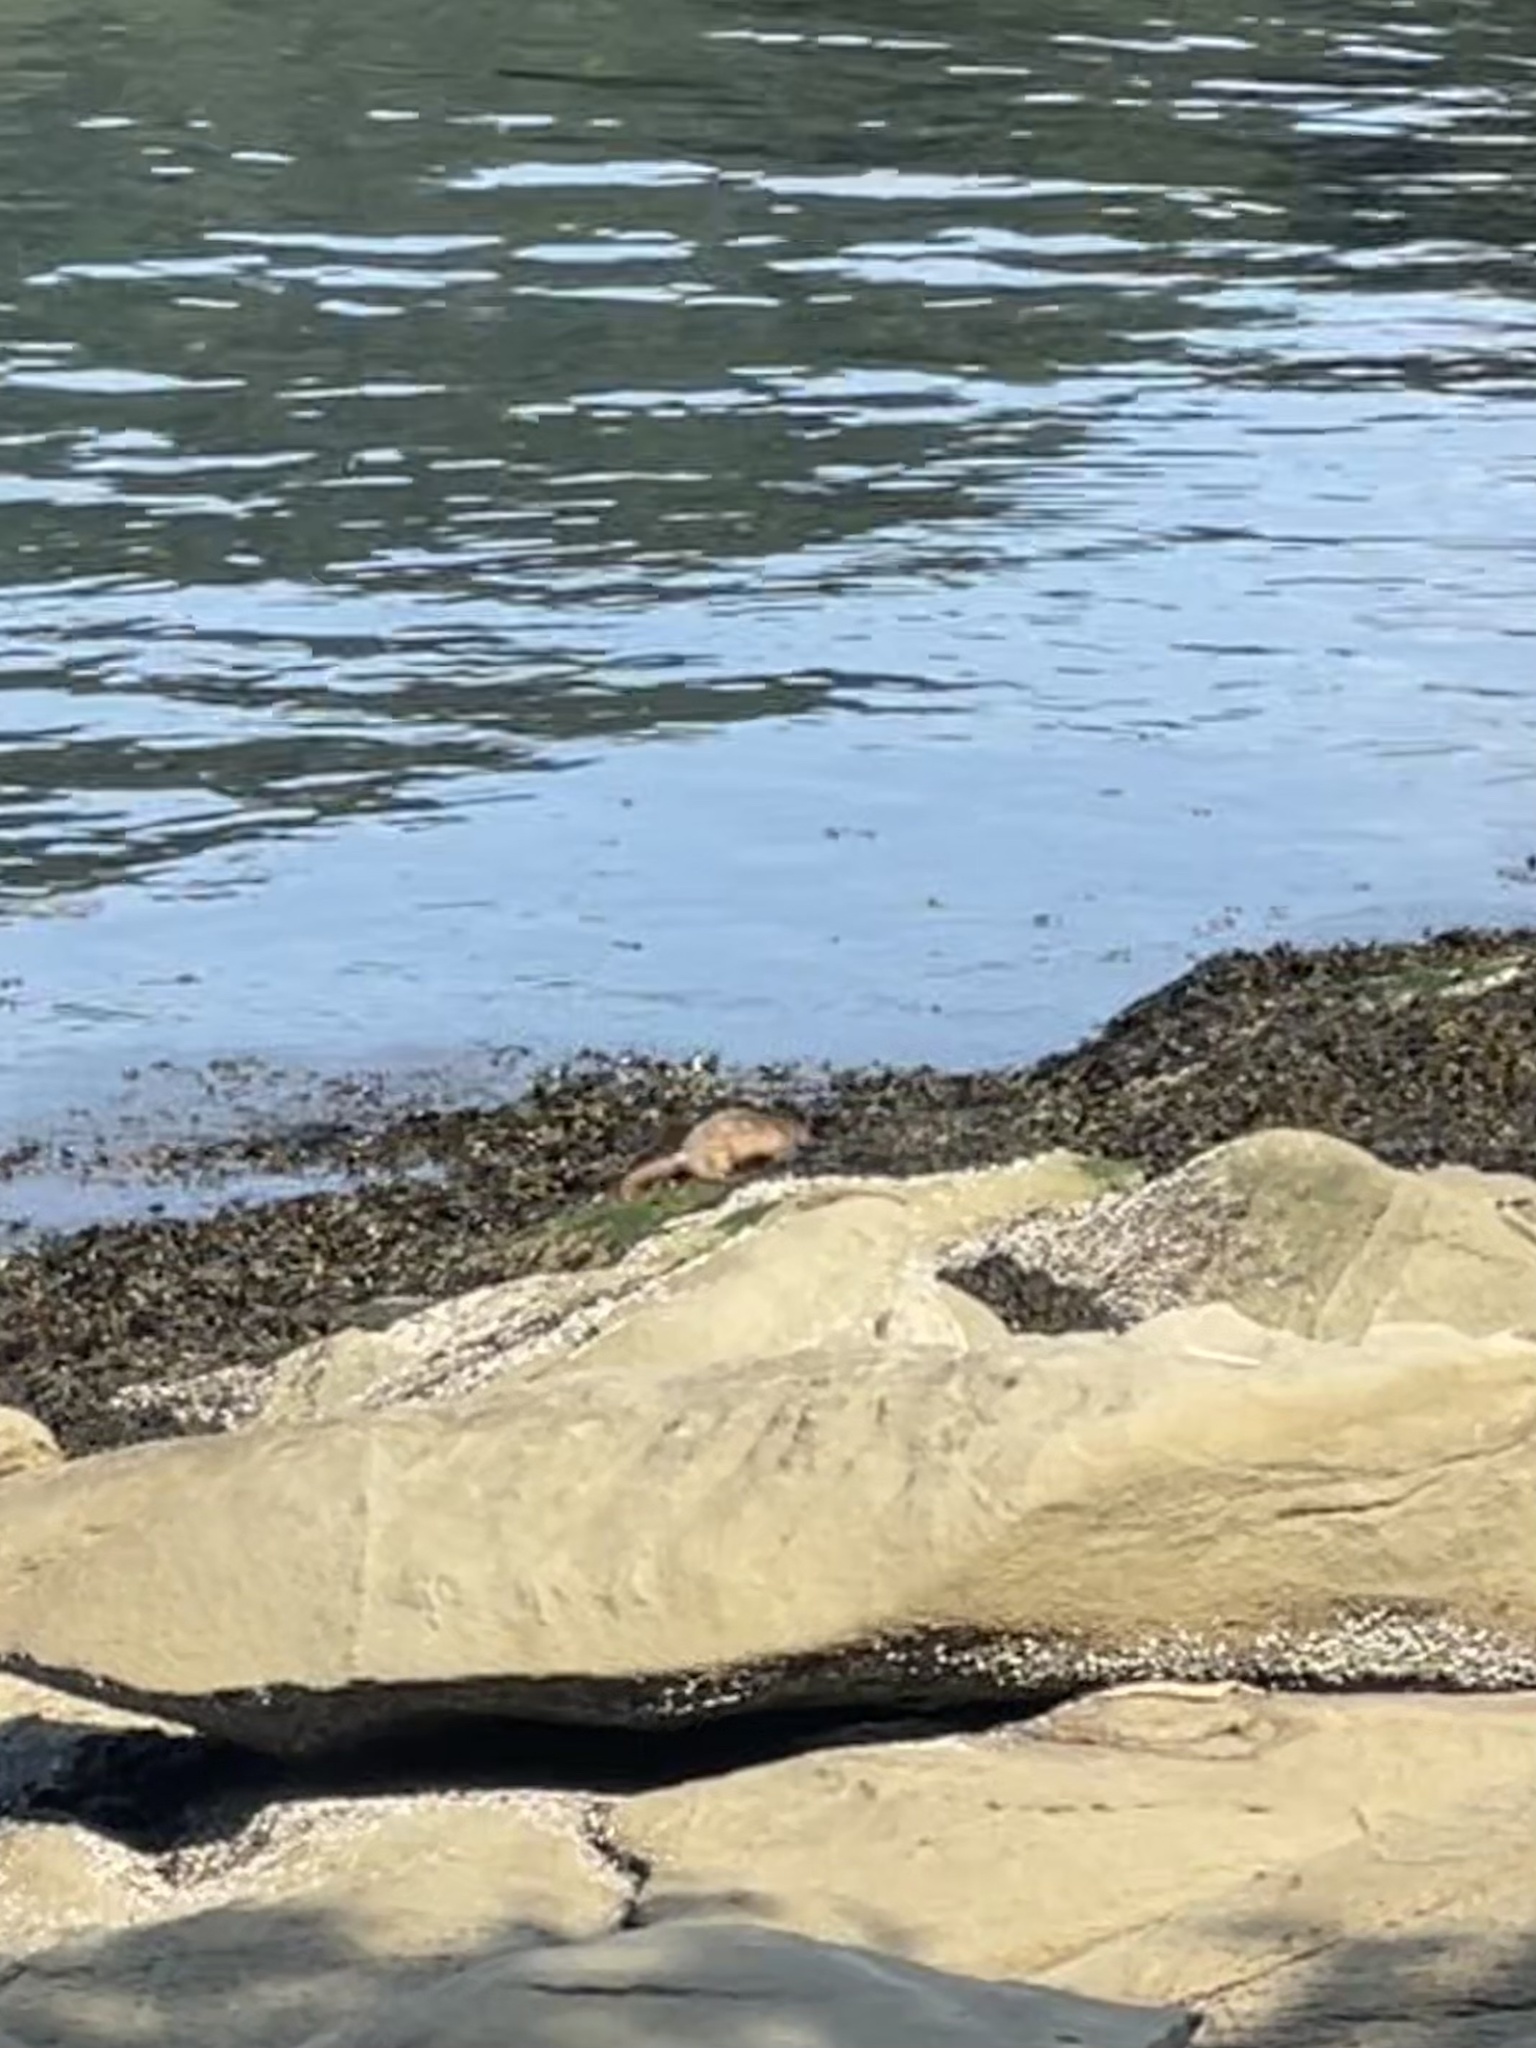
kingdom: Animalia
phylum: Chordata
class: Mammalia
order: Carnivora
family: Mustelidae
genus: Mustela
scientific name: Mustela
